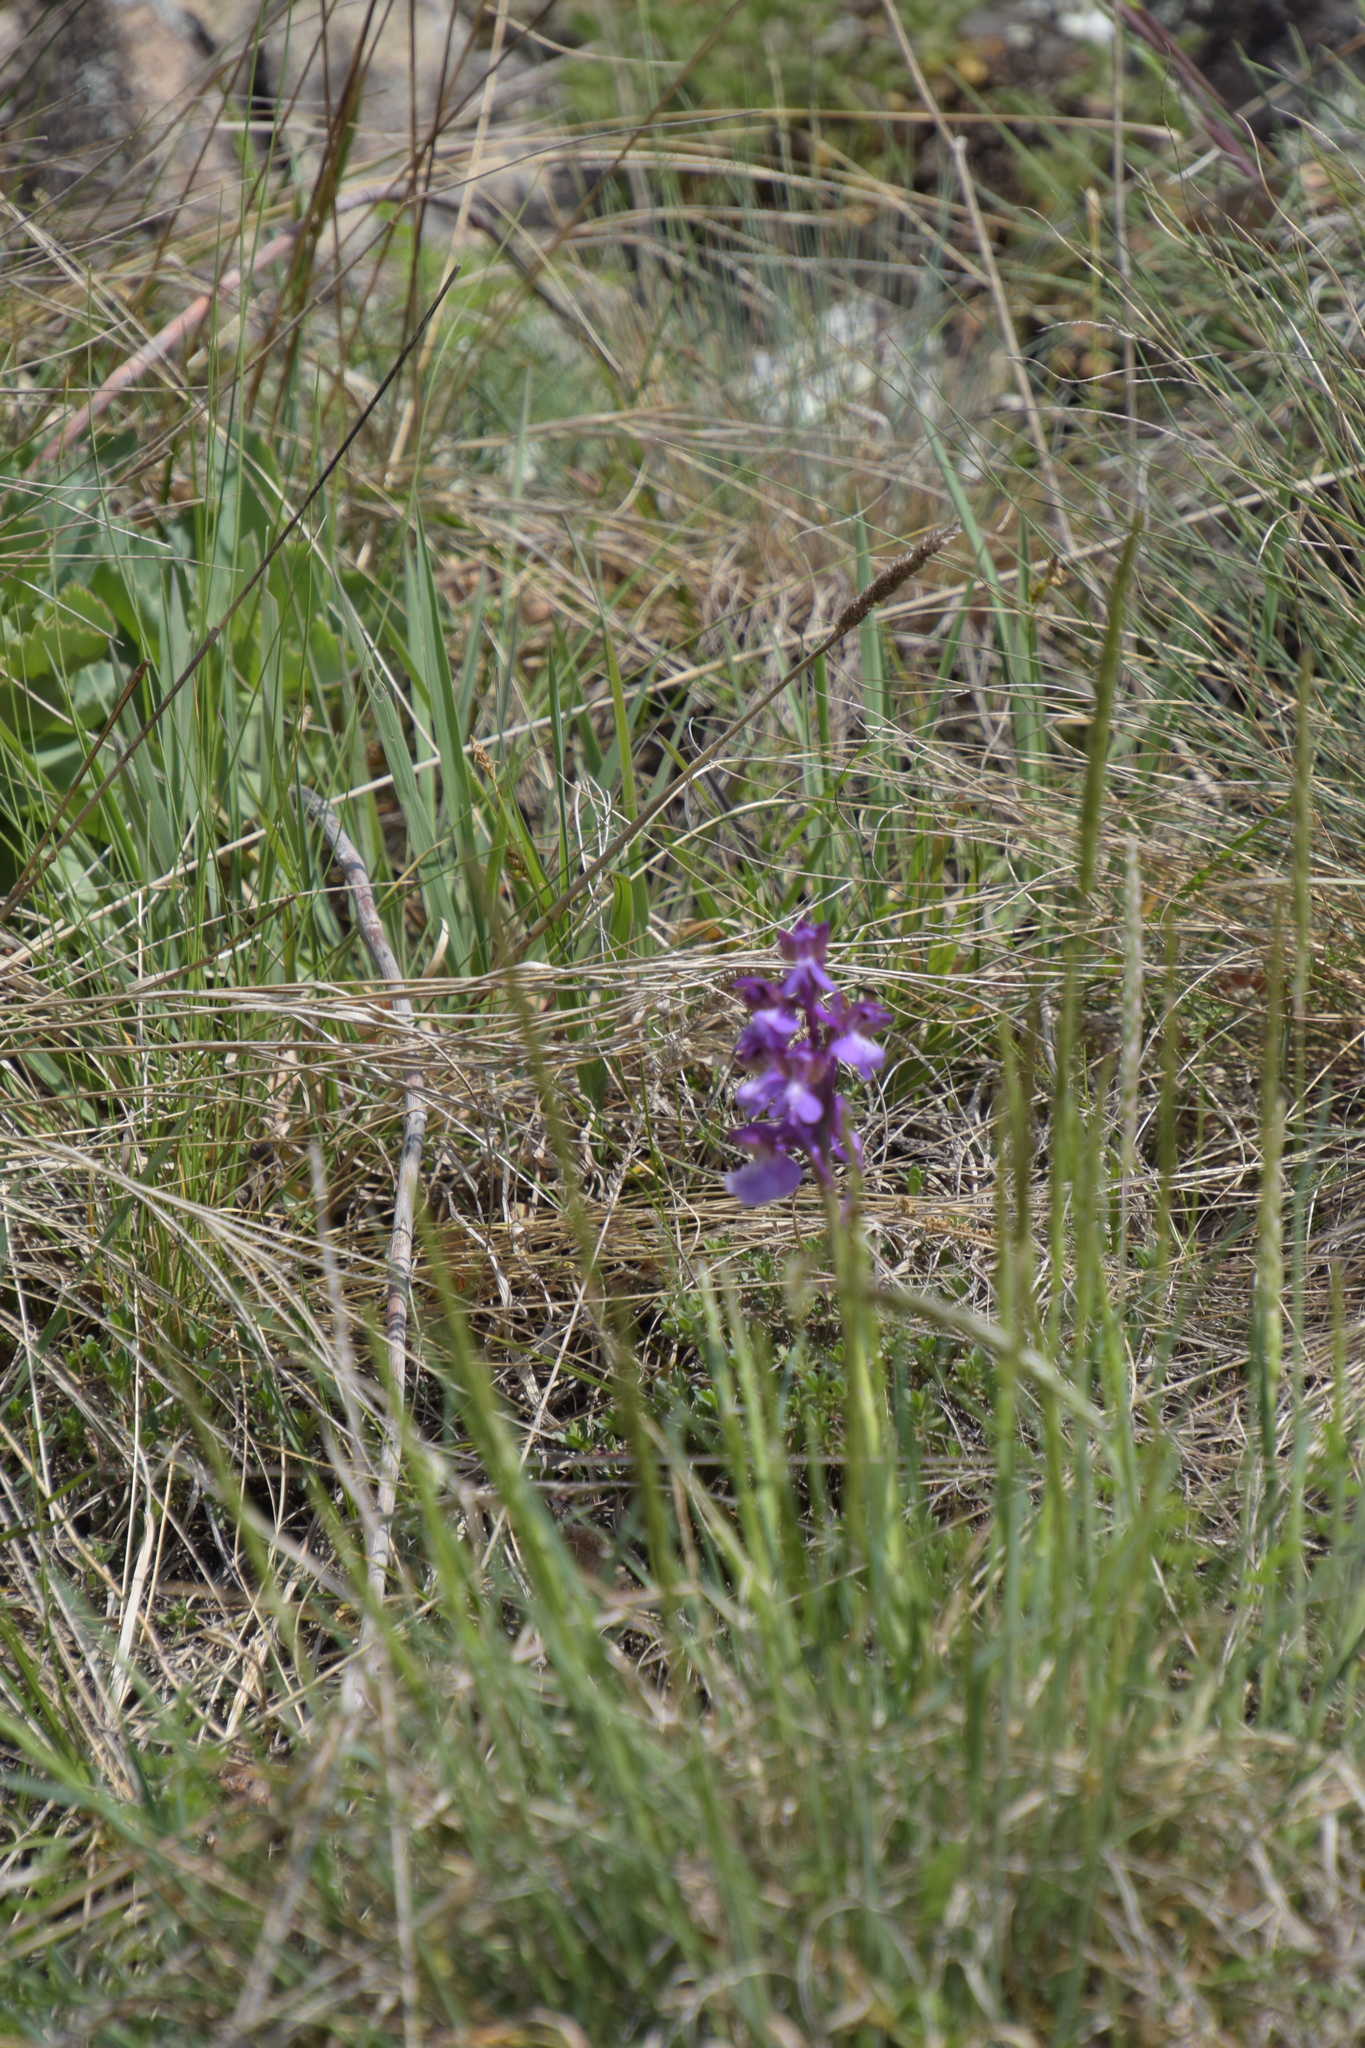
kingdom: Plantae
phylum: Tracheophyta
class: Liliopsida
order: Asparagales
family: Orchidaceae
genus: Anacamptis
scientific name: Anacamptis morio
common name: Green-winged orchid
